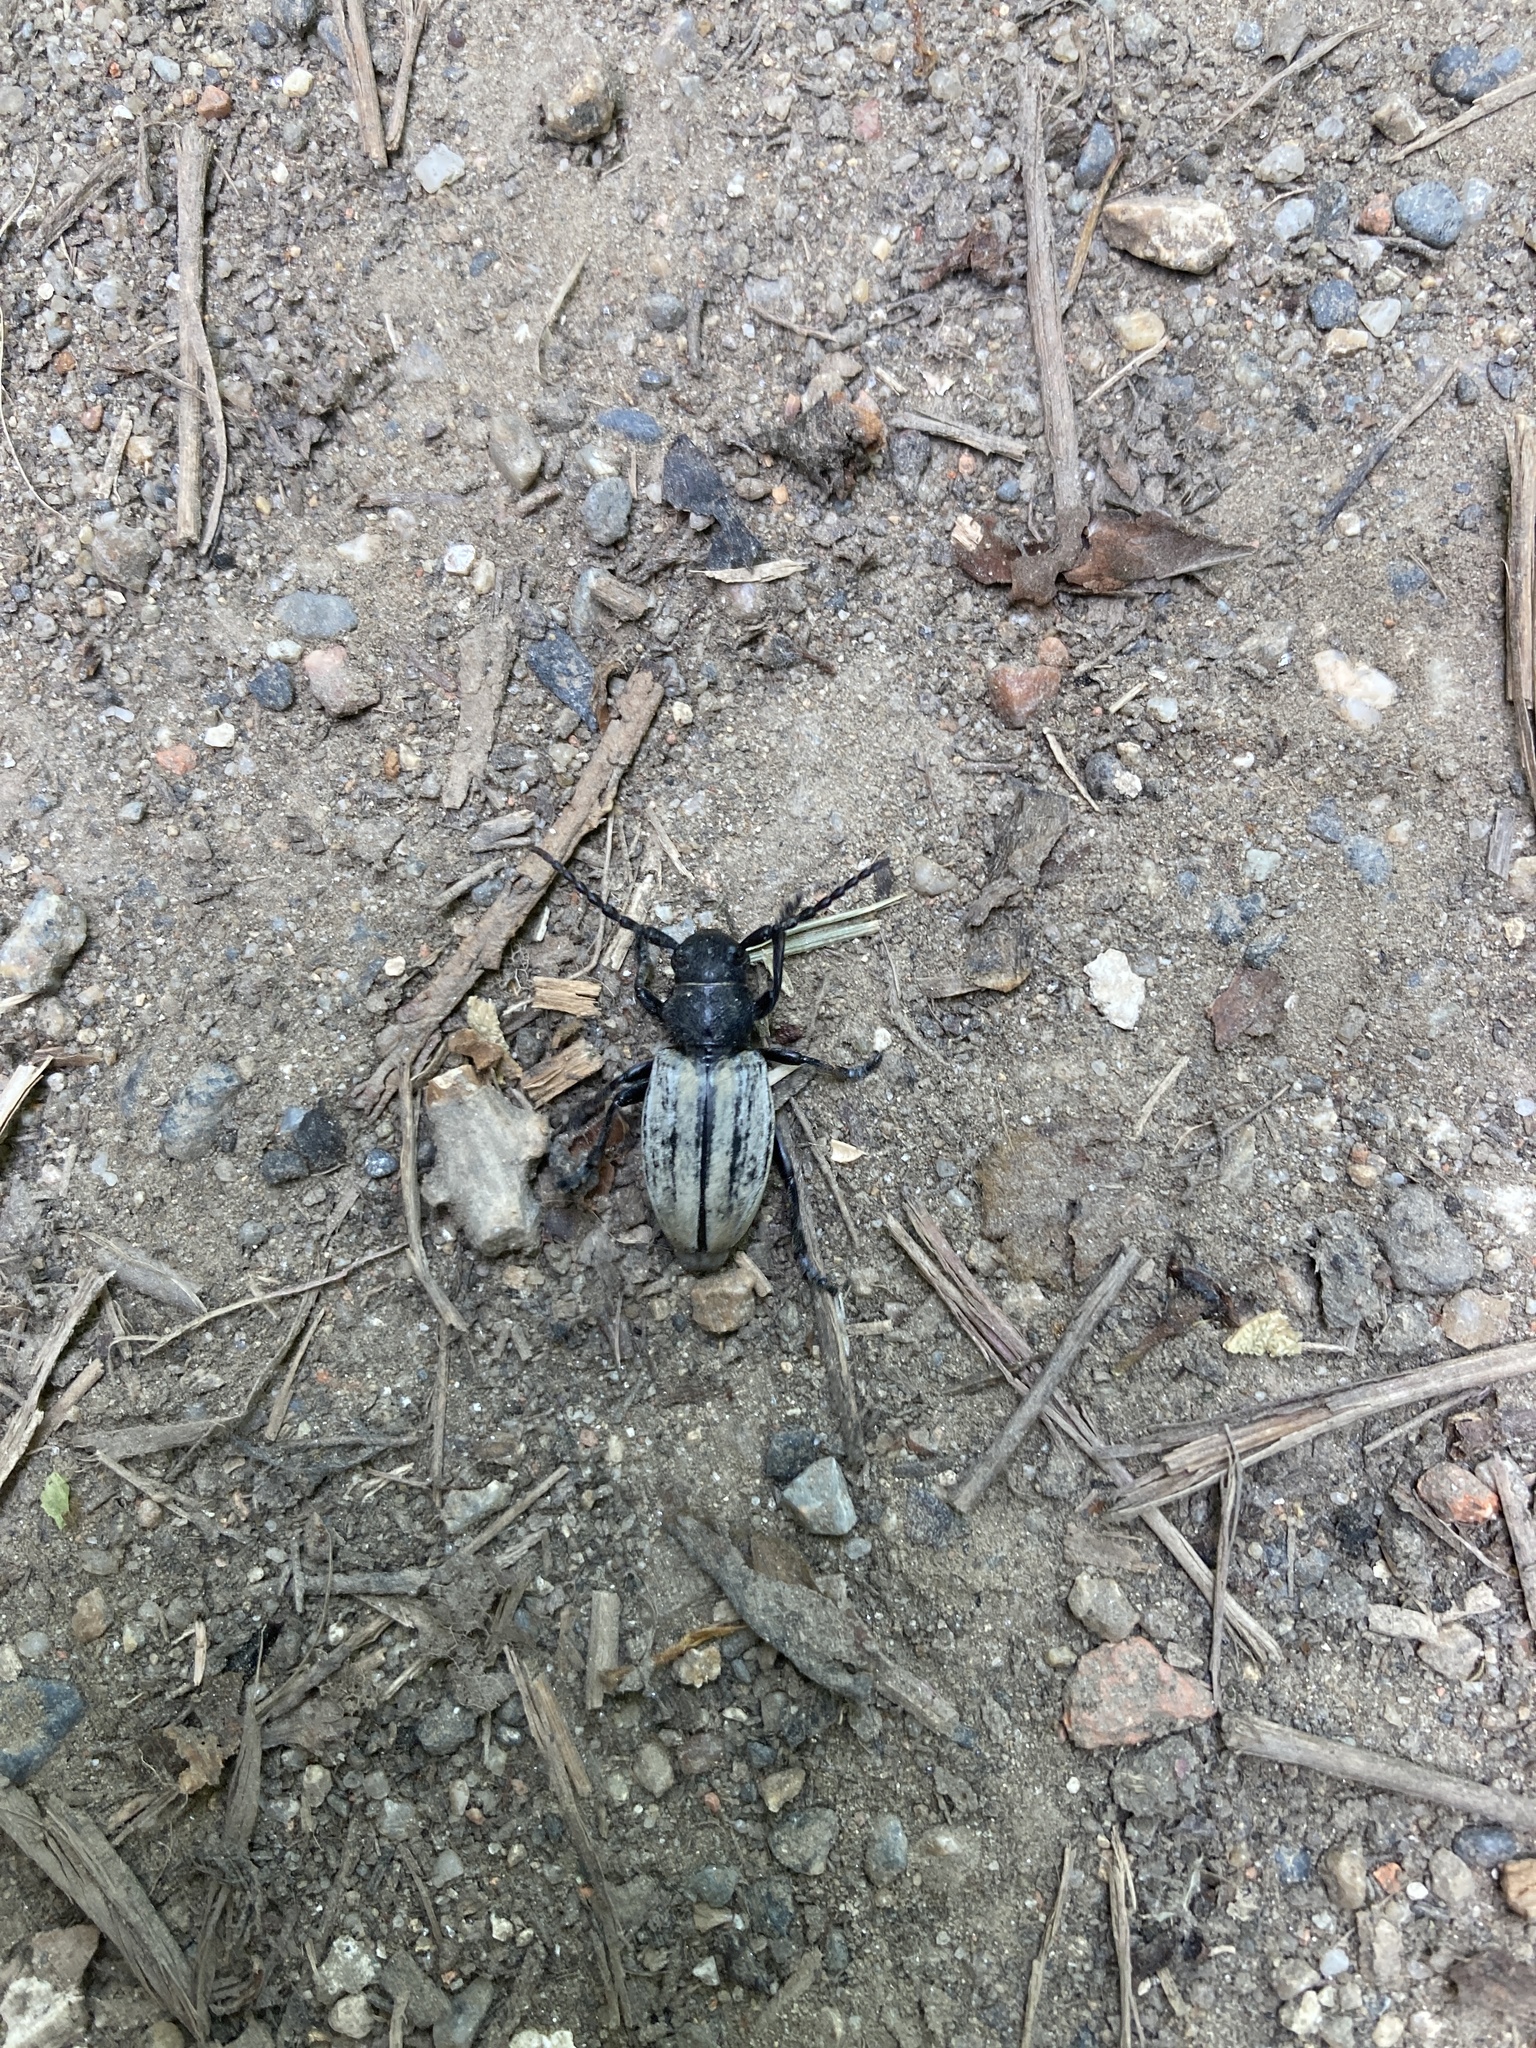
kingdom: Animalia
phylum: Arthropoda
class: Insecta
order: Coleoptera
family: Cerambycidae
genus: Iberodorcadion
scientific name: Iberodorcadion fuliginator
